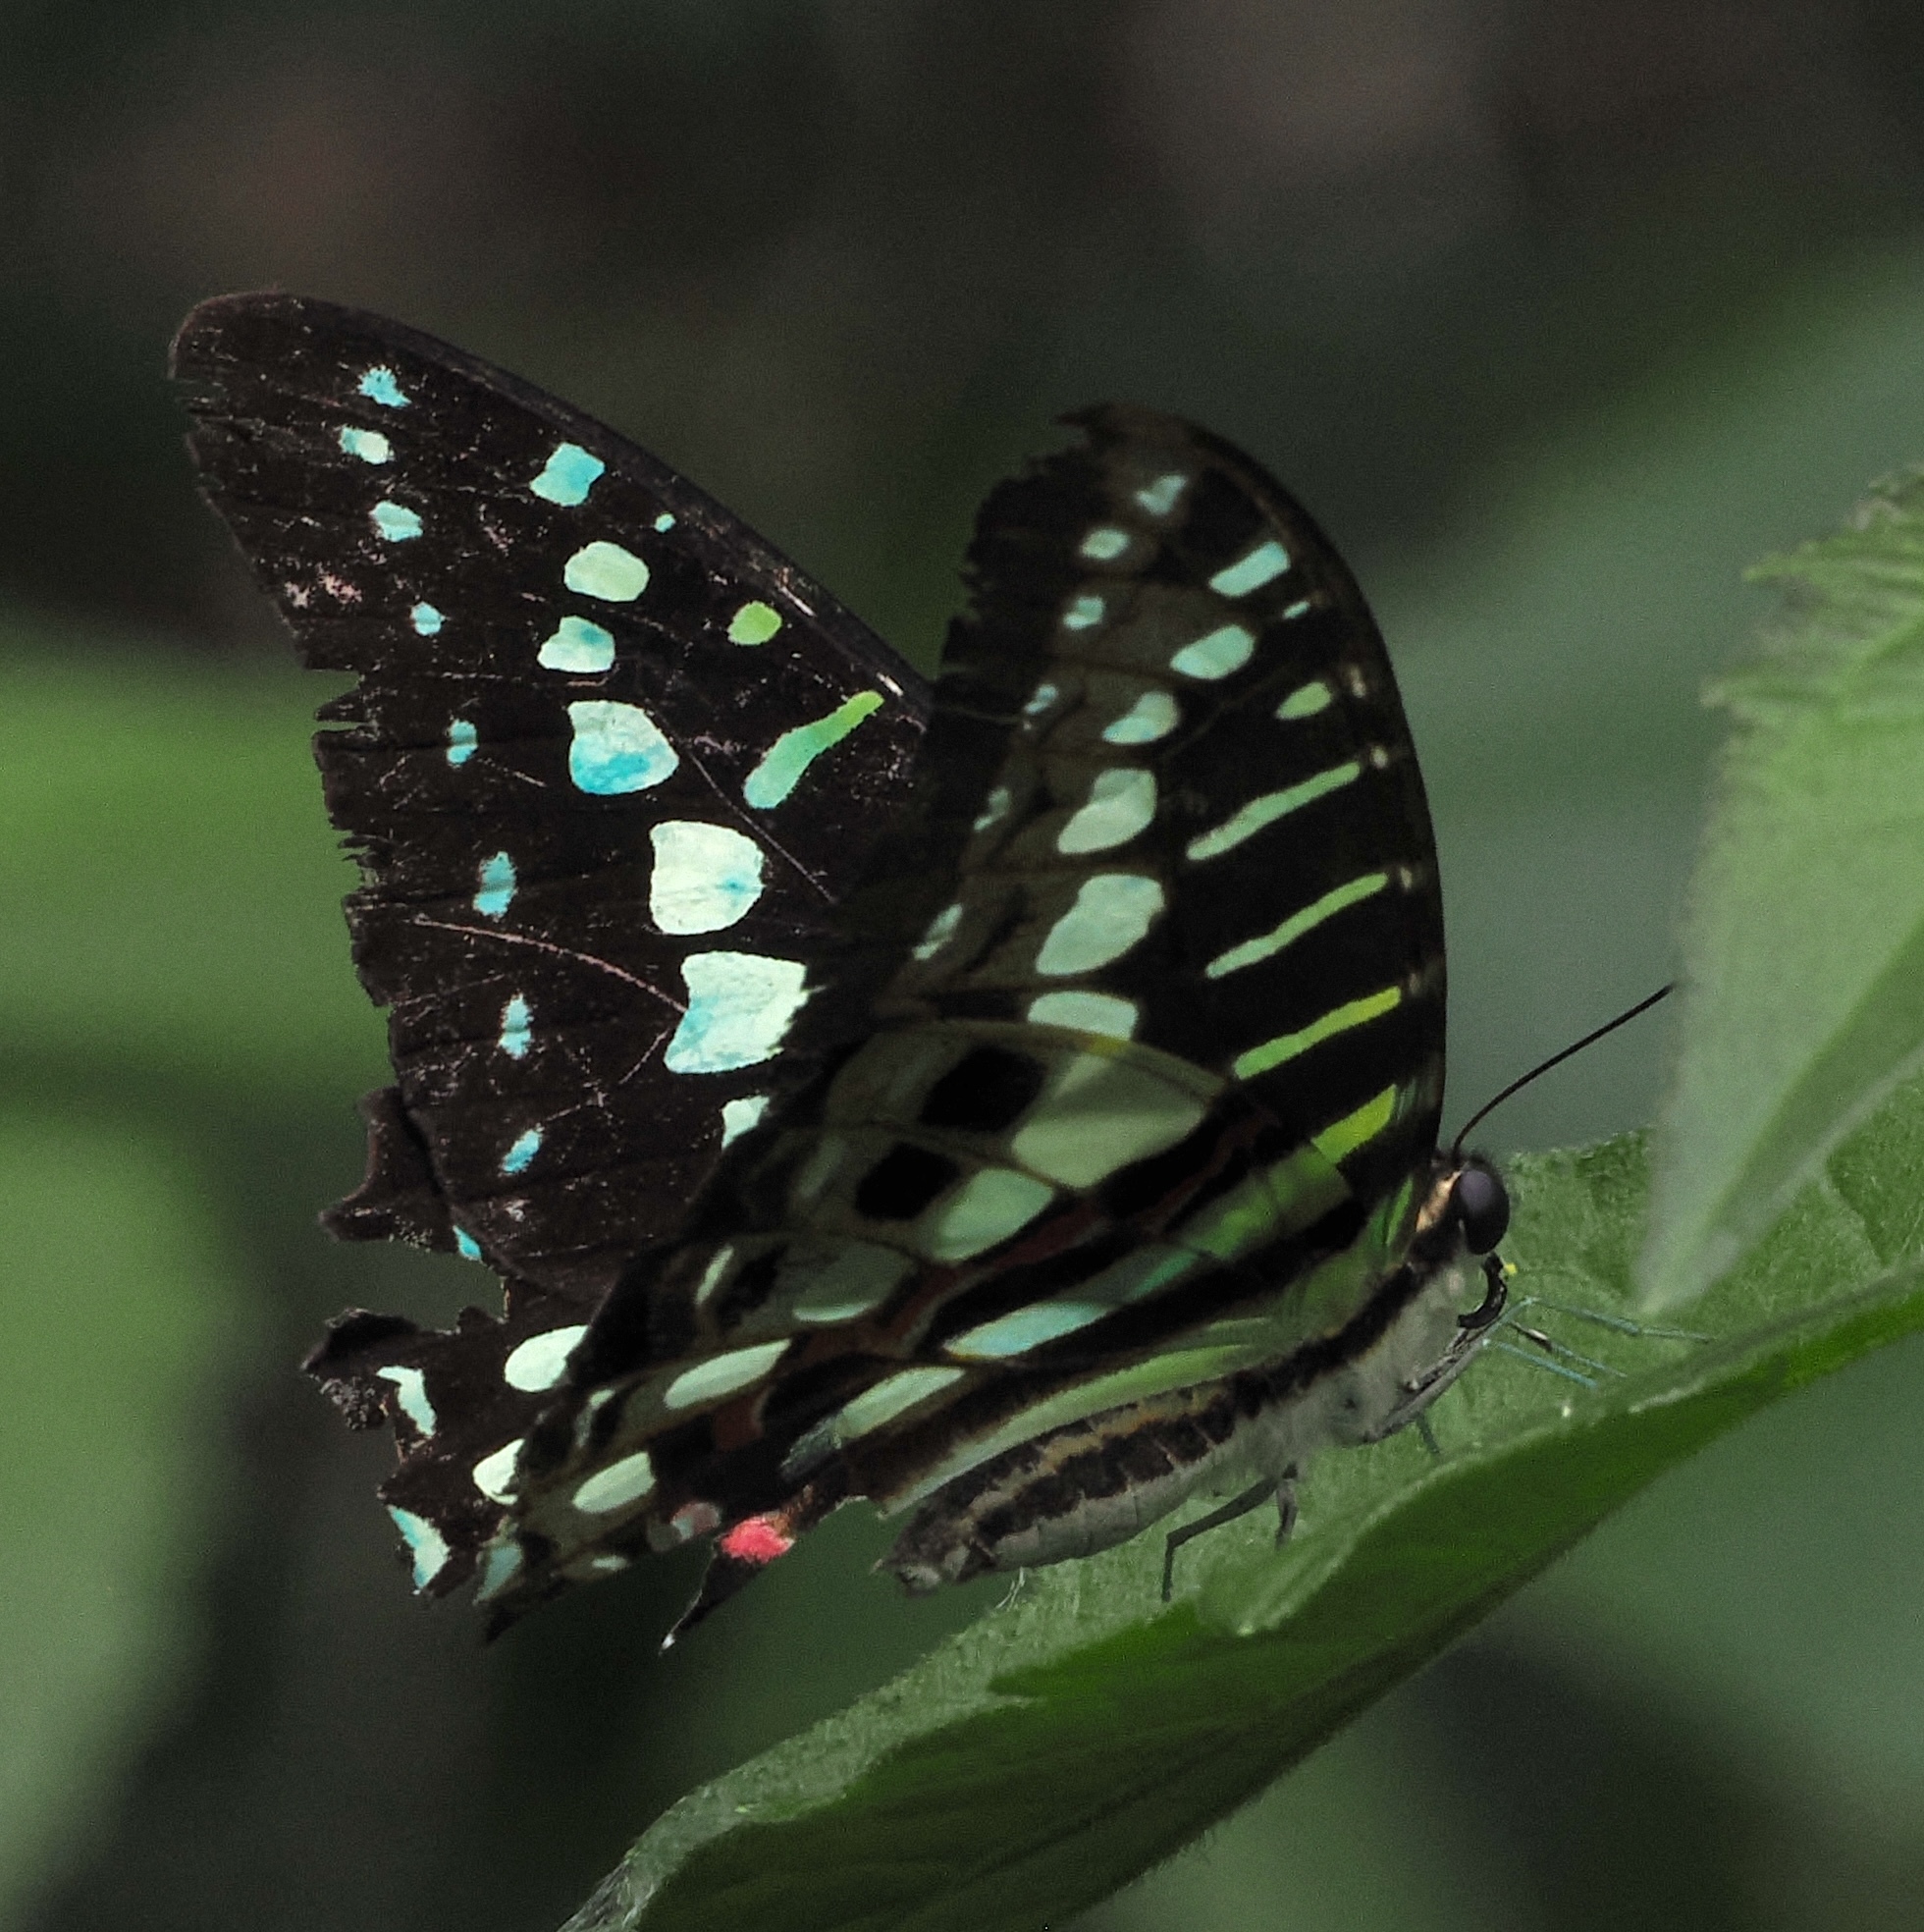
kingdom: Animalia
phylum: Arthropoda
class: Insecta
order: Lepidoptera
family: Papilionidae
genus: Graphium
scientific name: Graphium policenes
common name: Common swordtail
